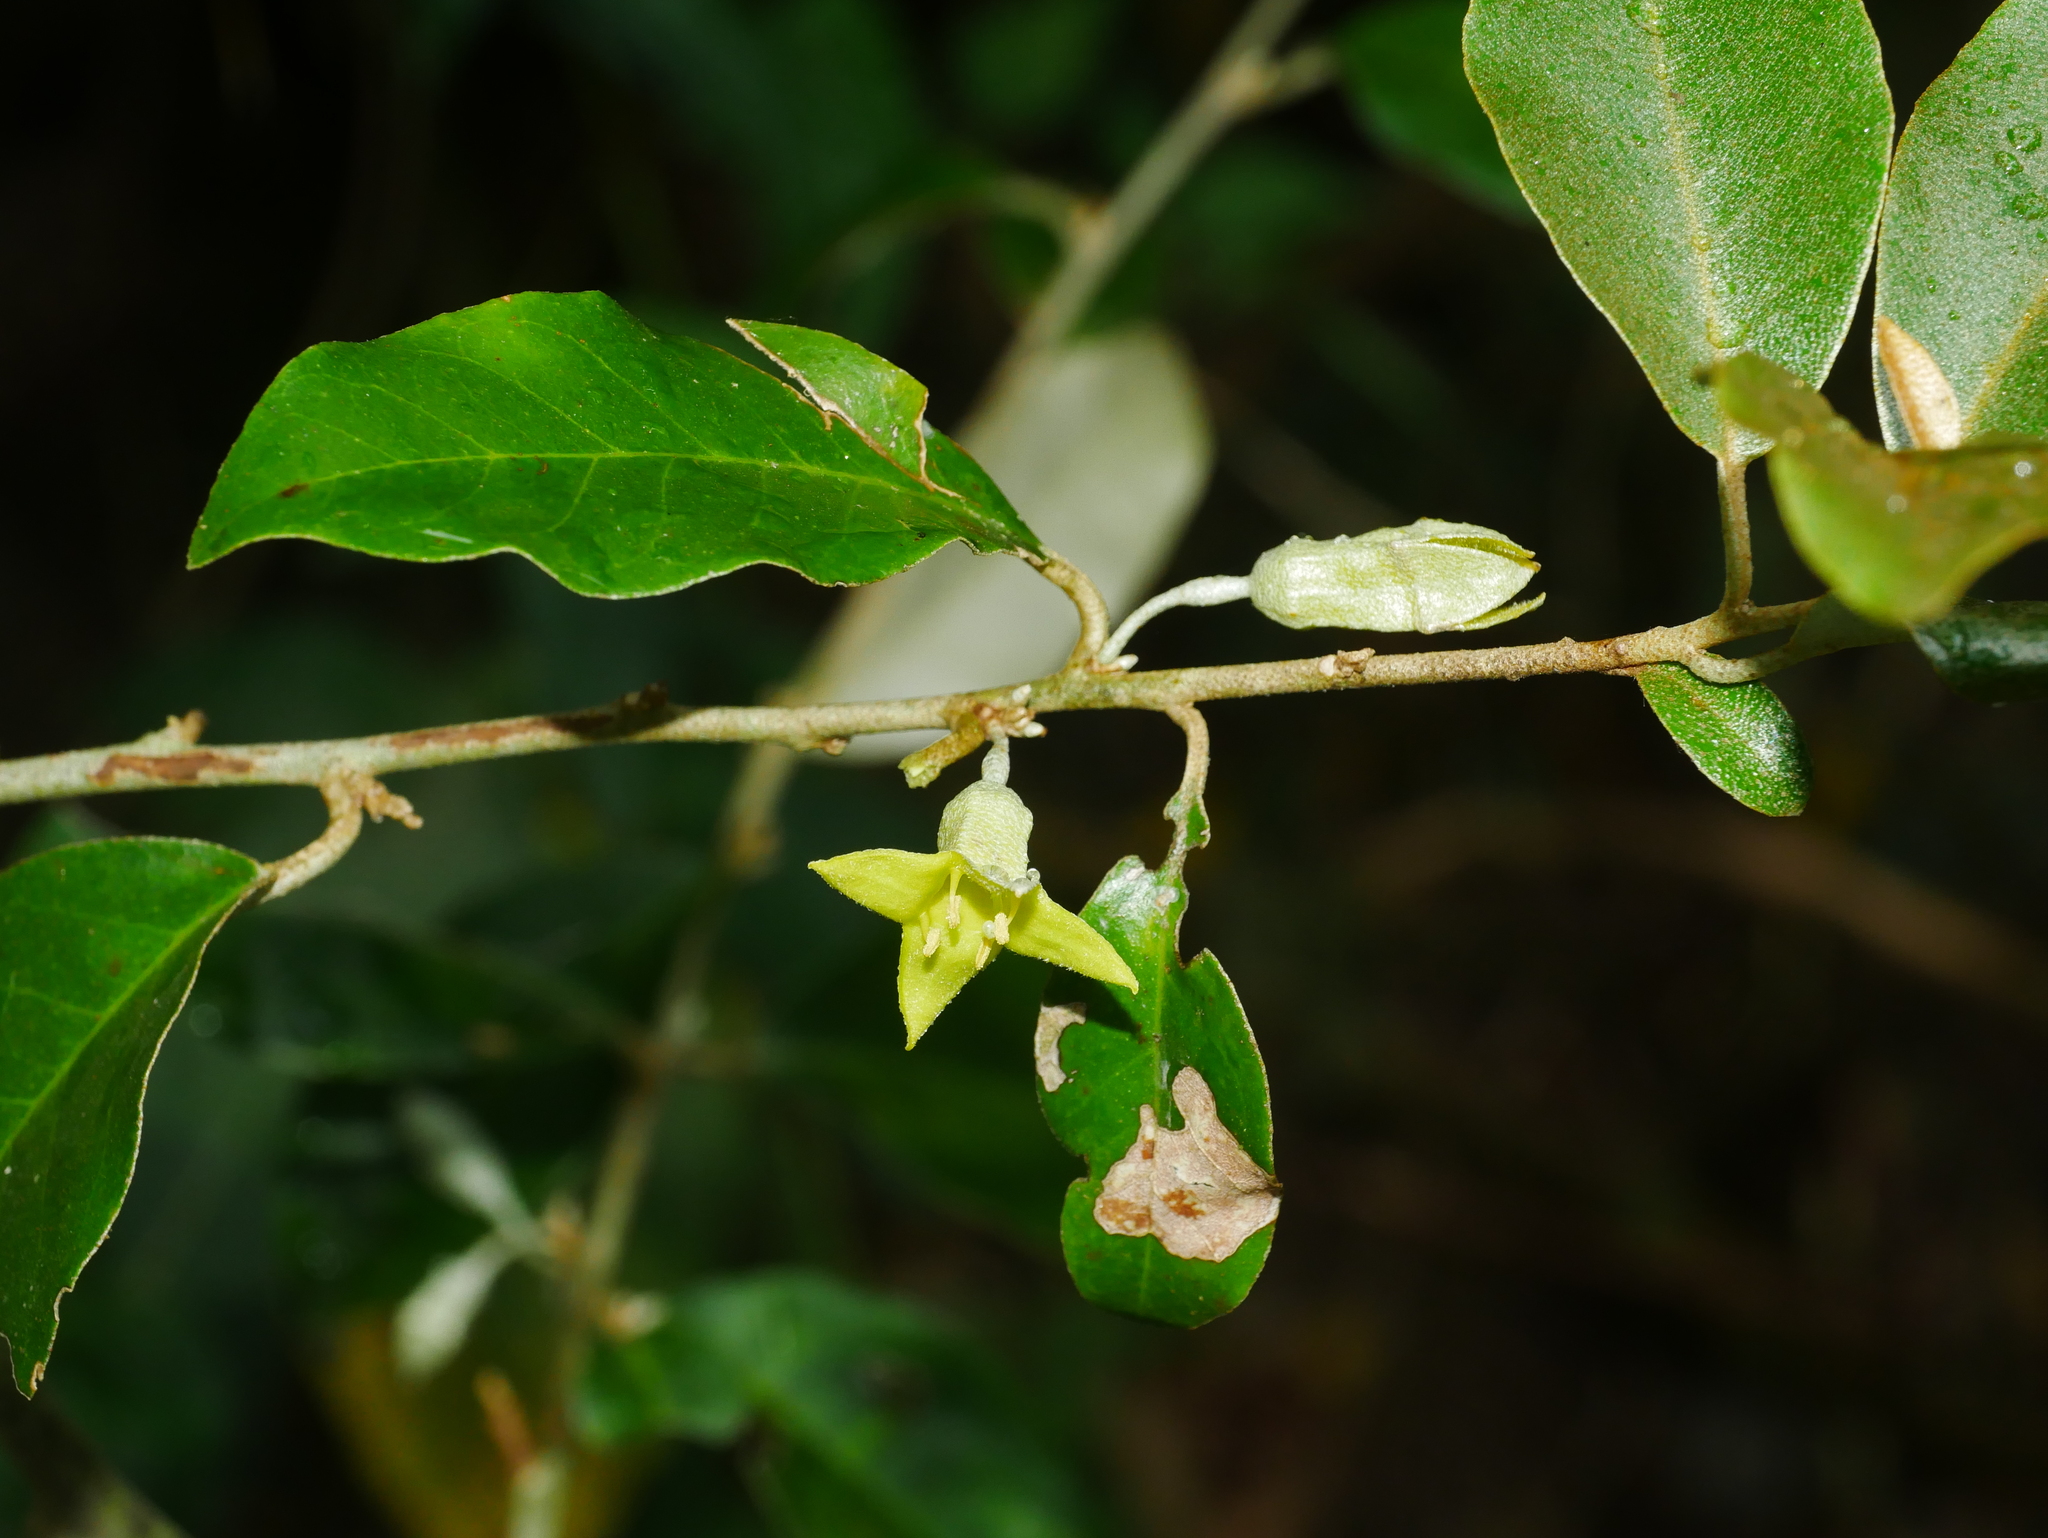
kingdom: Plantae
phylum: Tracheophyta
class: Magnoliopsida
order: Rosales
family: Elaeagnaceae
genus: Elaeagnus
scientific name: Elaeagnus formosensis
